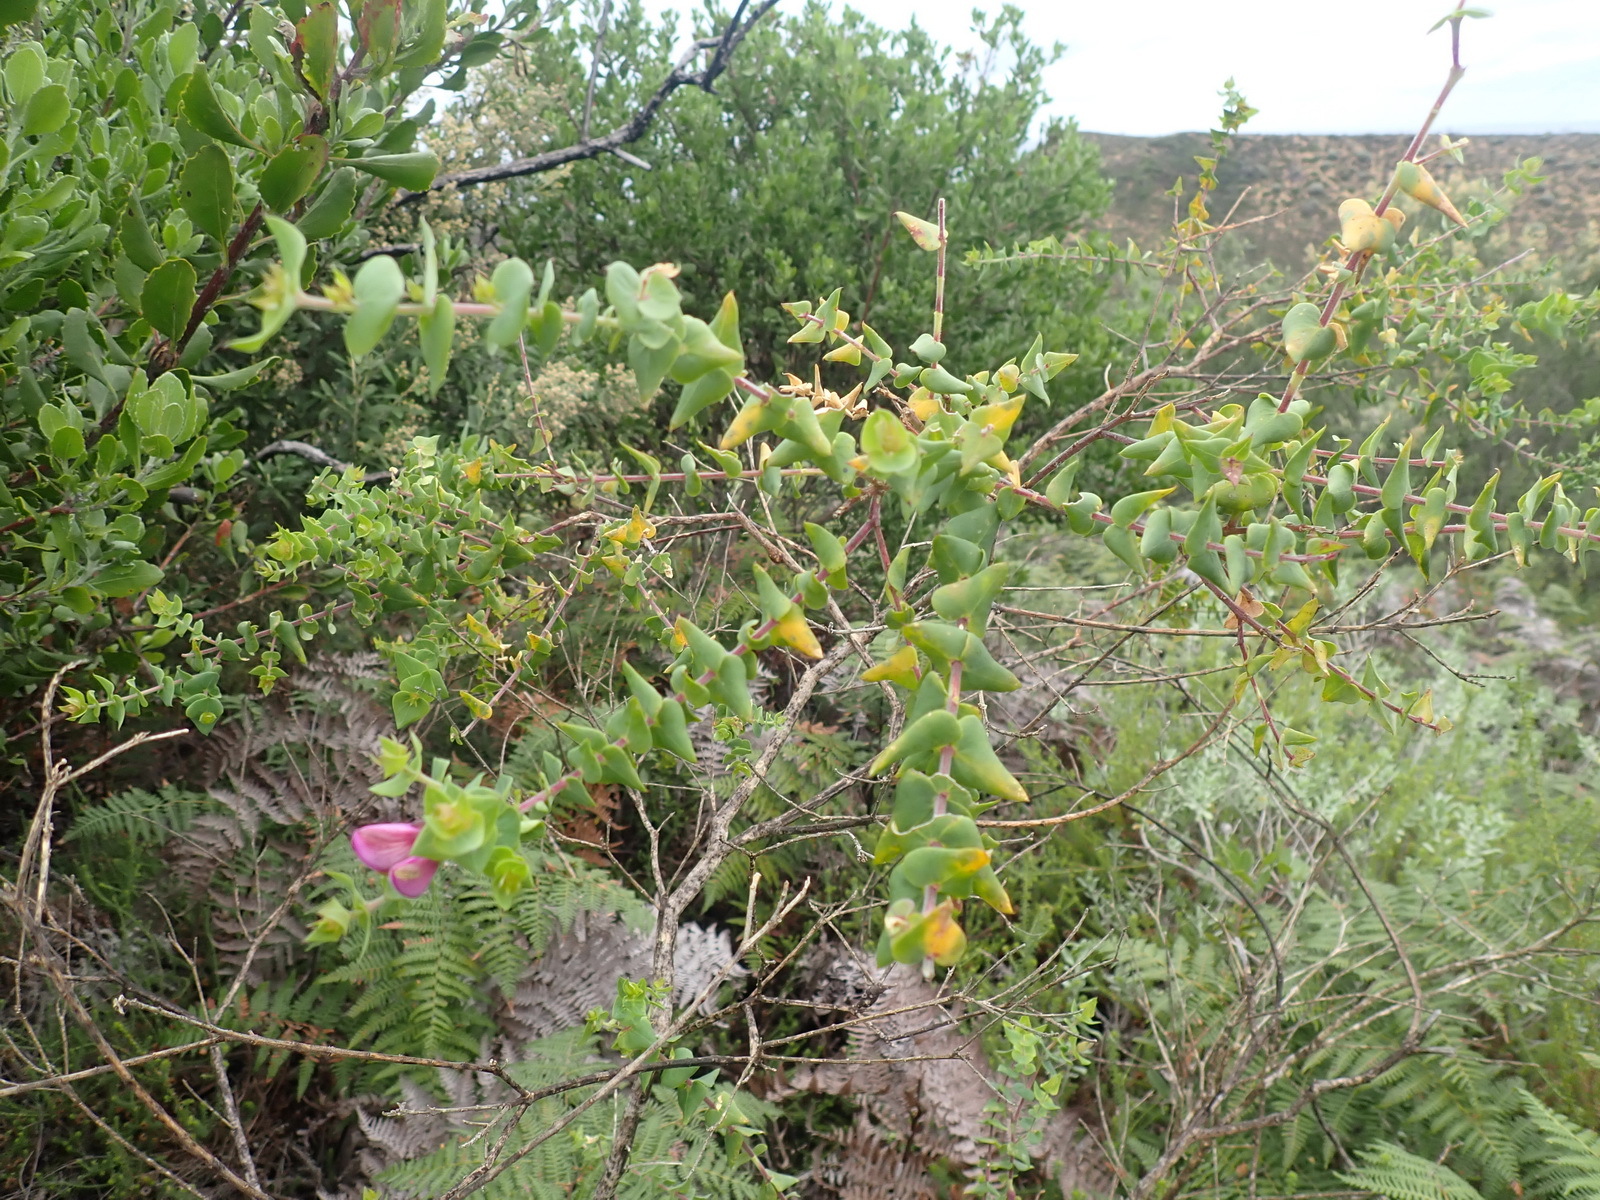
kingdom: Plantae
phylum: Tracheophyta
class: Magnoliopsida
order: Fabales
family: Polygalaceae
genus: Polygala
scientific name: Polygala fruticosa
